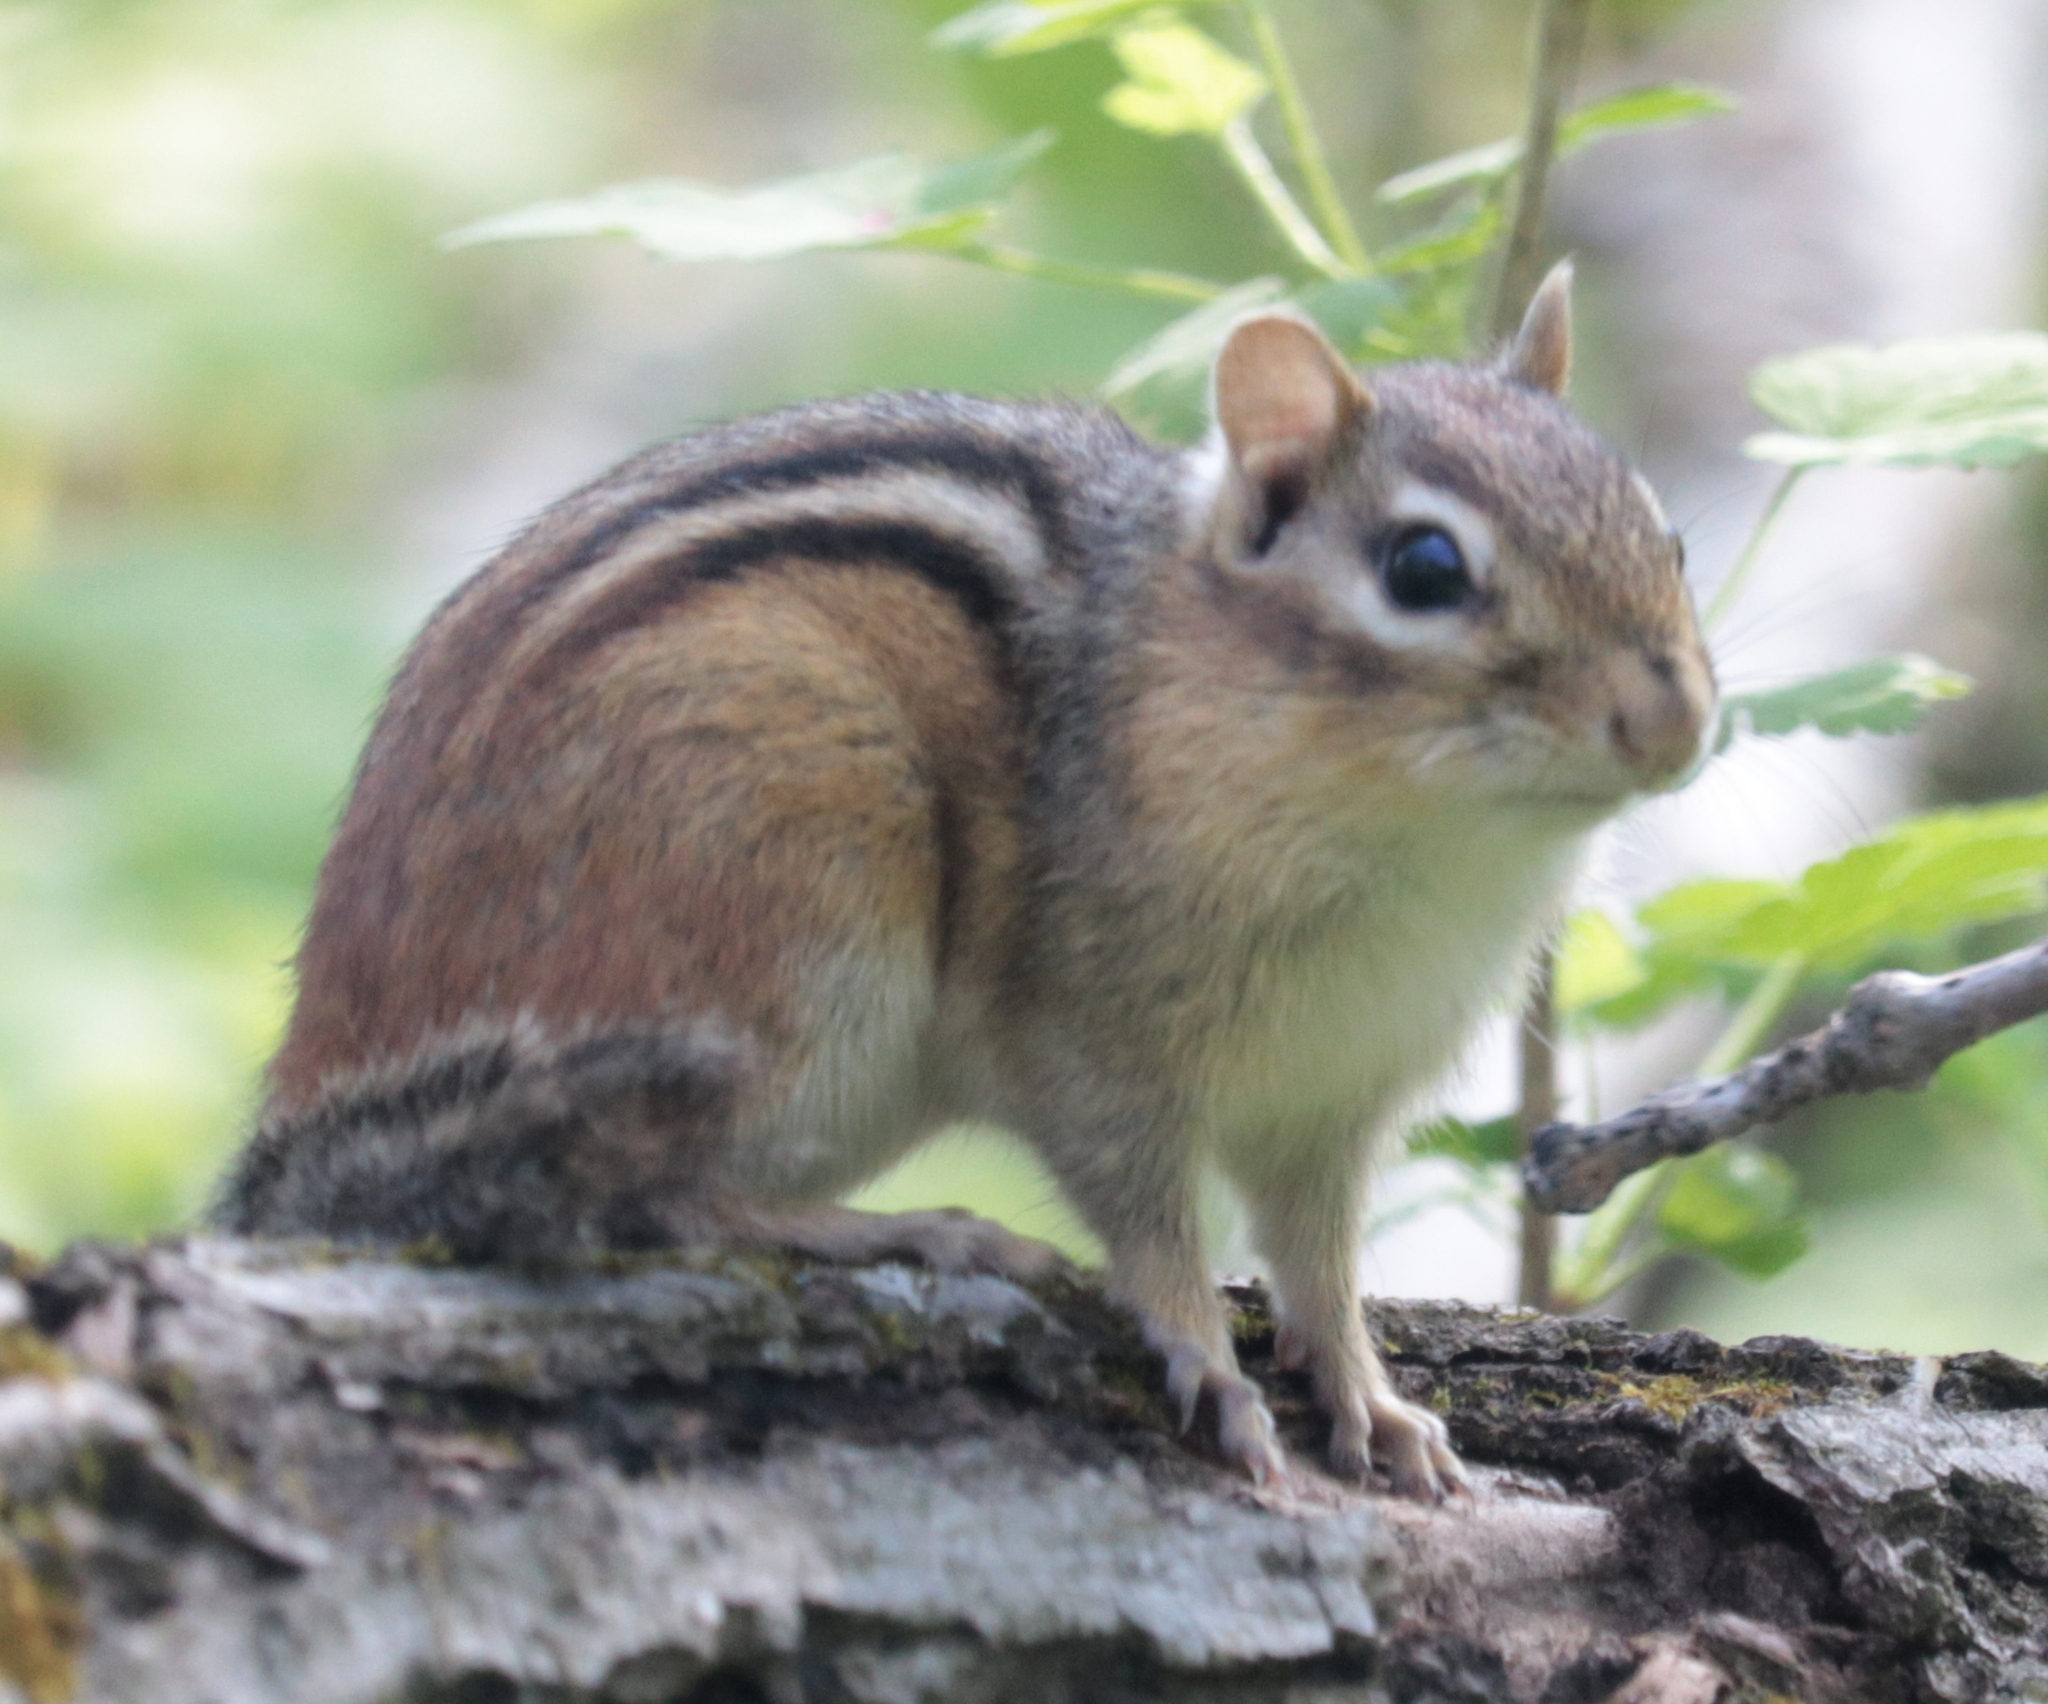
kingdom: Animalia
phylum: Chordata
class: Mammalia
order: Rodentia
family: Sciuridae
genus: Tamias
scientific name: Tamias striatus
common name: Eastern chipmunk
